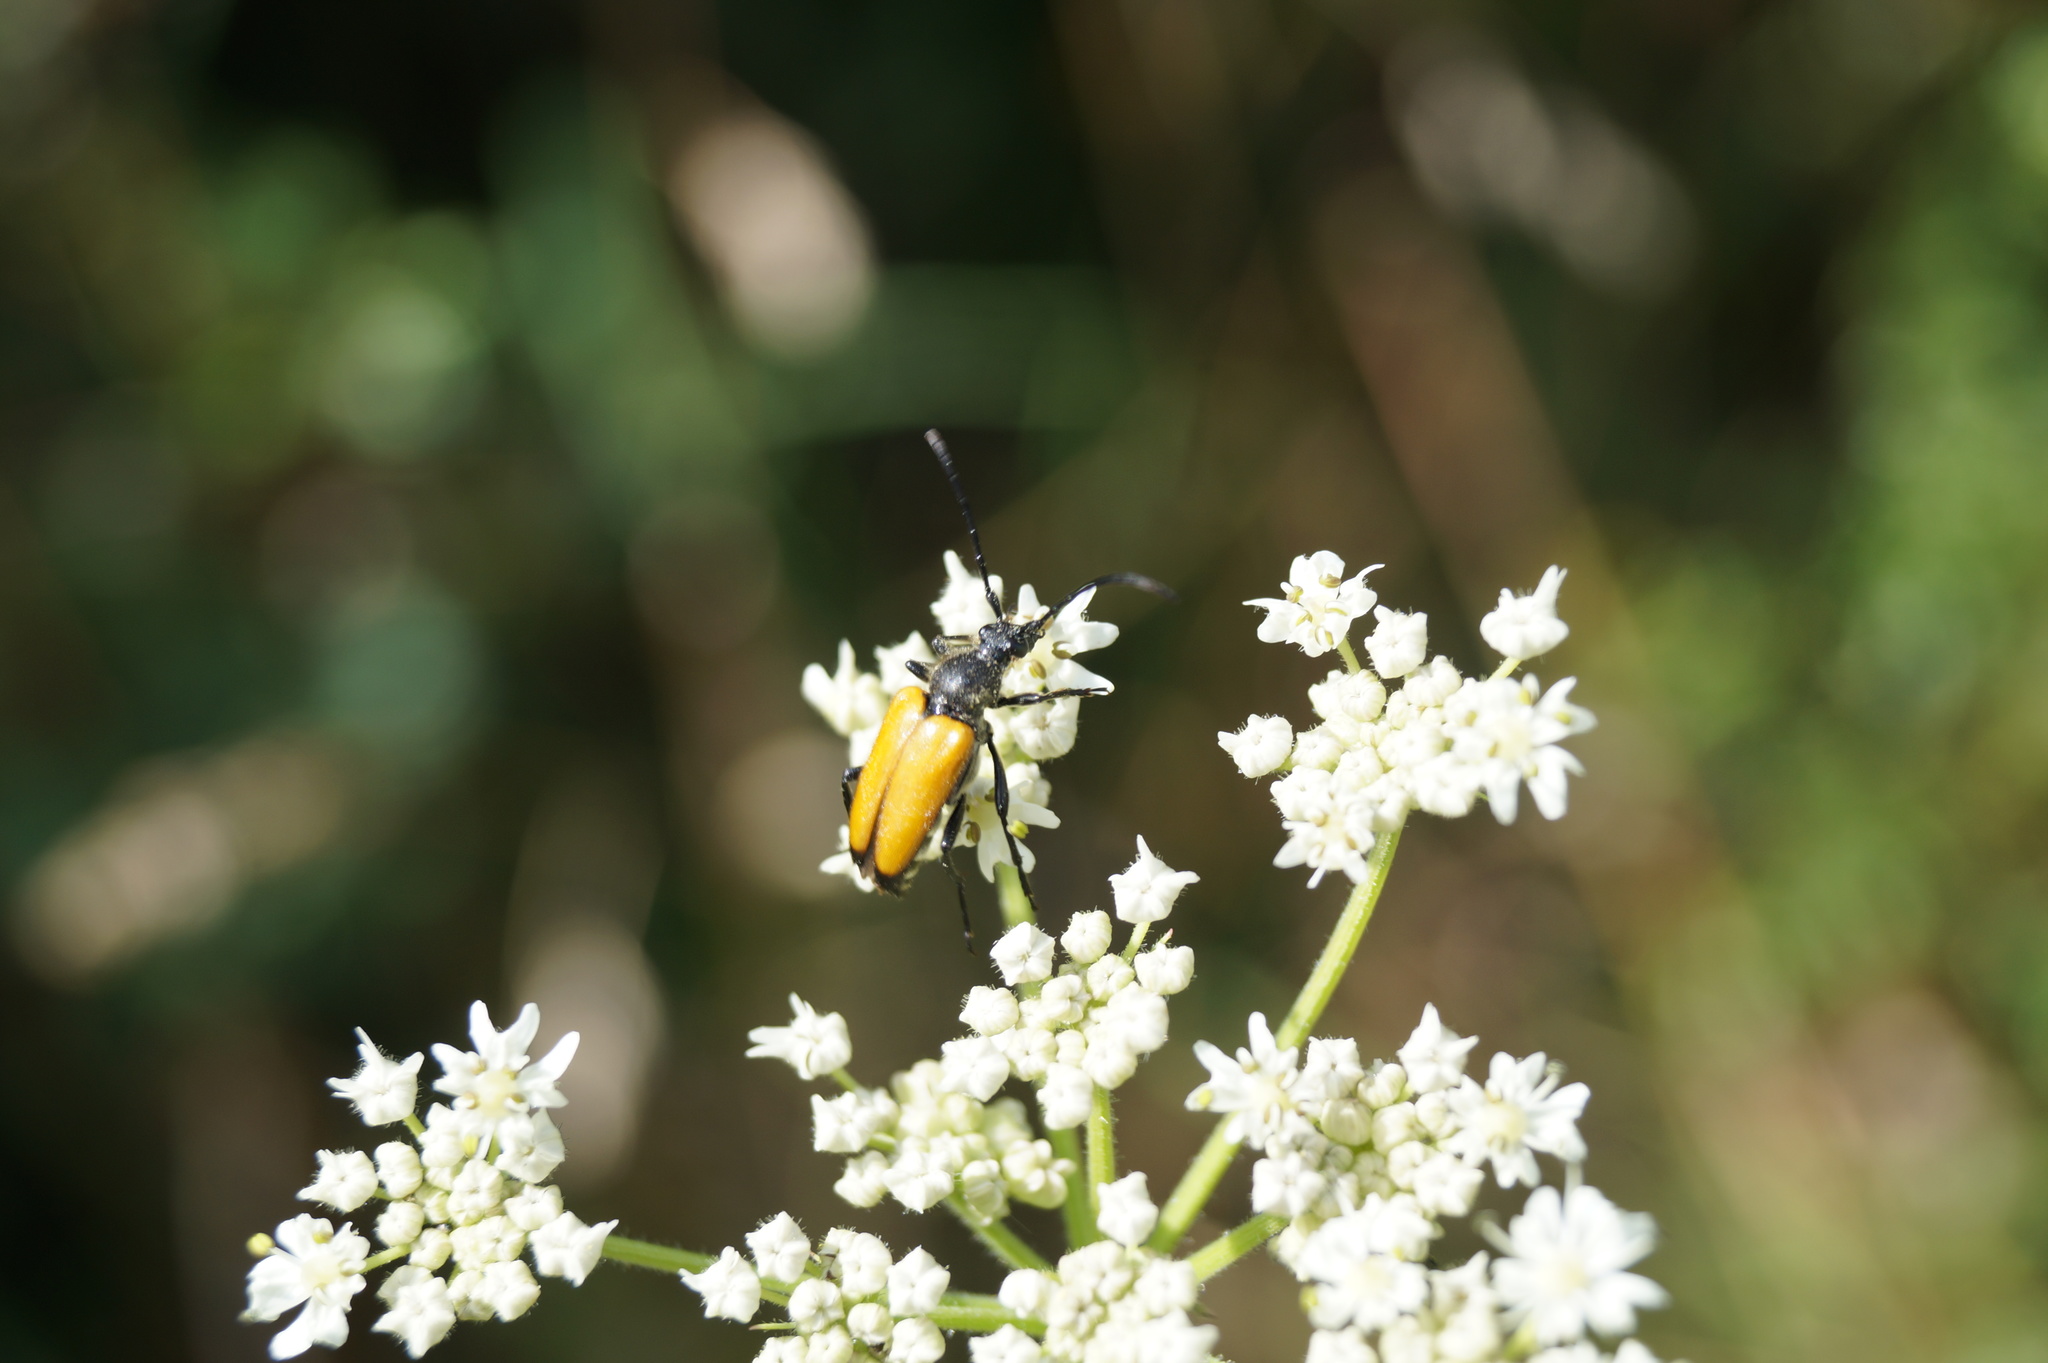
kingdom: Animalia
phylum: Arthropoda
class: Insecta
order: Coleoptera
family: Cerambycidae
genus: Paracorymbia
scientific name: Paracorymbia fulva
